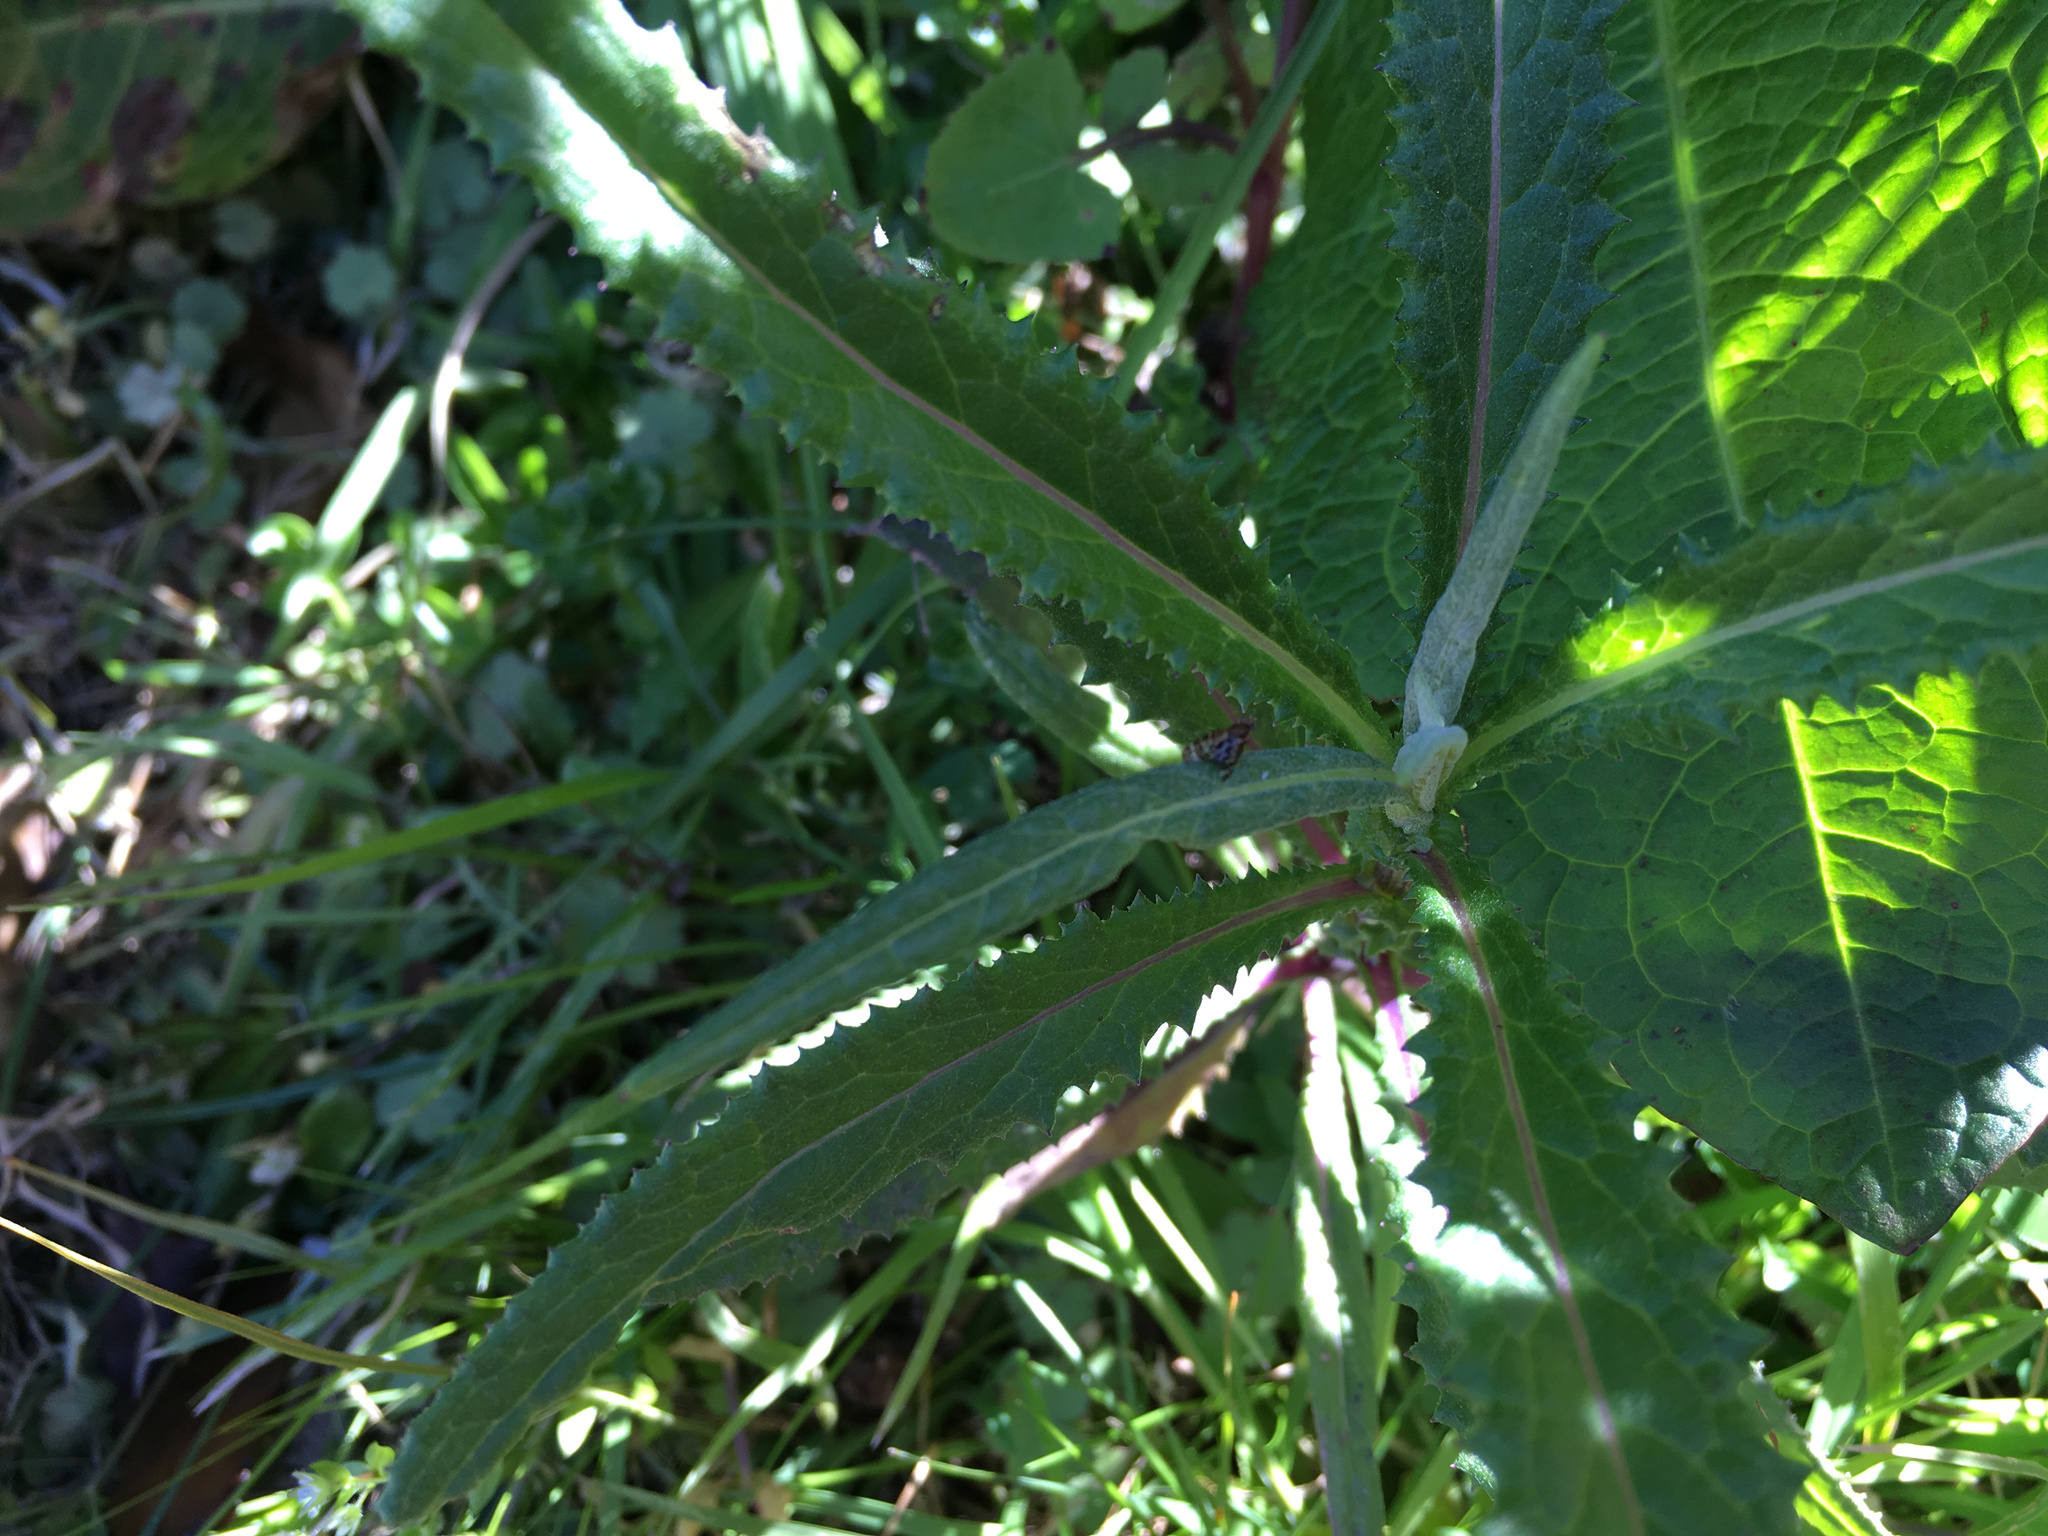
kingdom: Plantae
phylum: Tracheophyta
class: Magnoliopsida
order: Asterales
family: Asteraceae
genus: Senecio
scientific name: Senecio minimus
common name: Toothed fireweed
